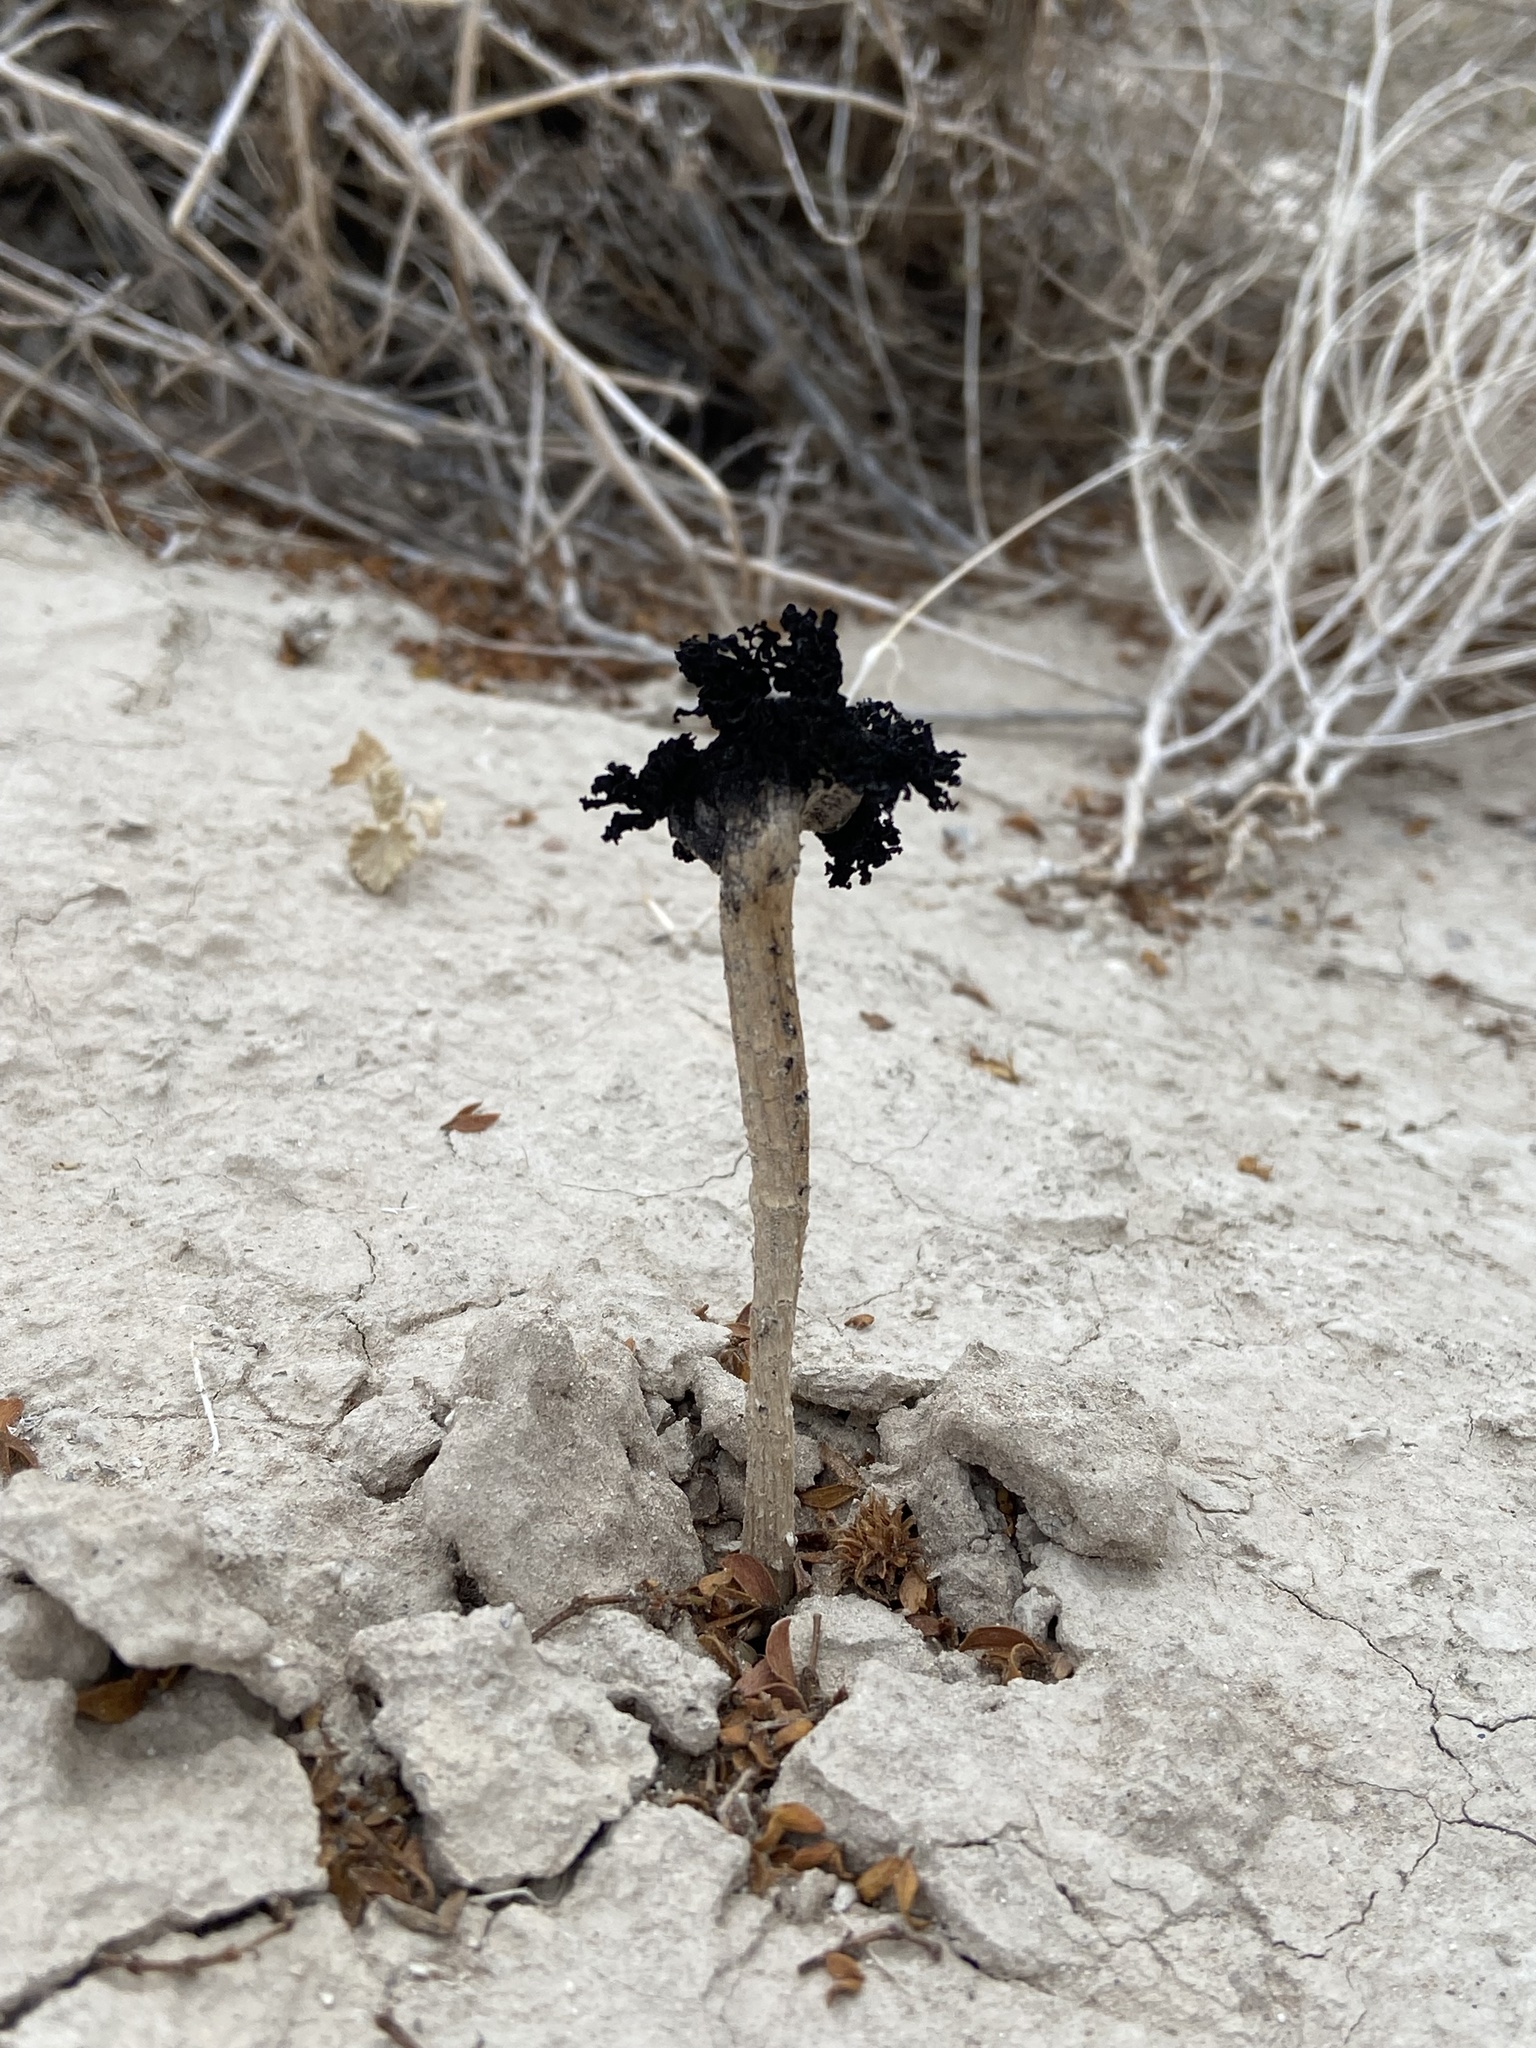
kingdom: Fungi
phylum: Basidiomycota
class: Agaricomycetes
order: Agaricales
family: Agaricaceae
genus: Montagnea
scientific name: Montagnea arenaria
